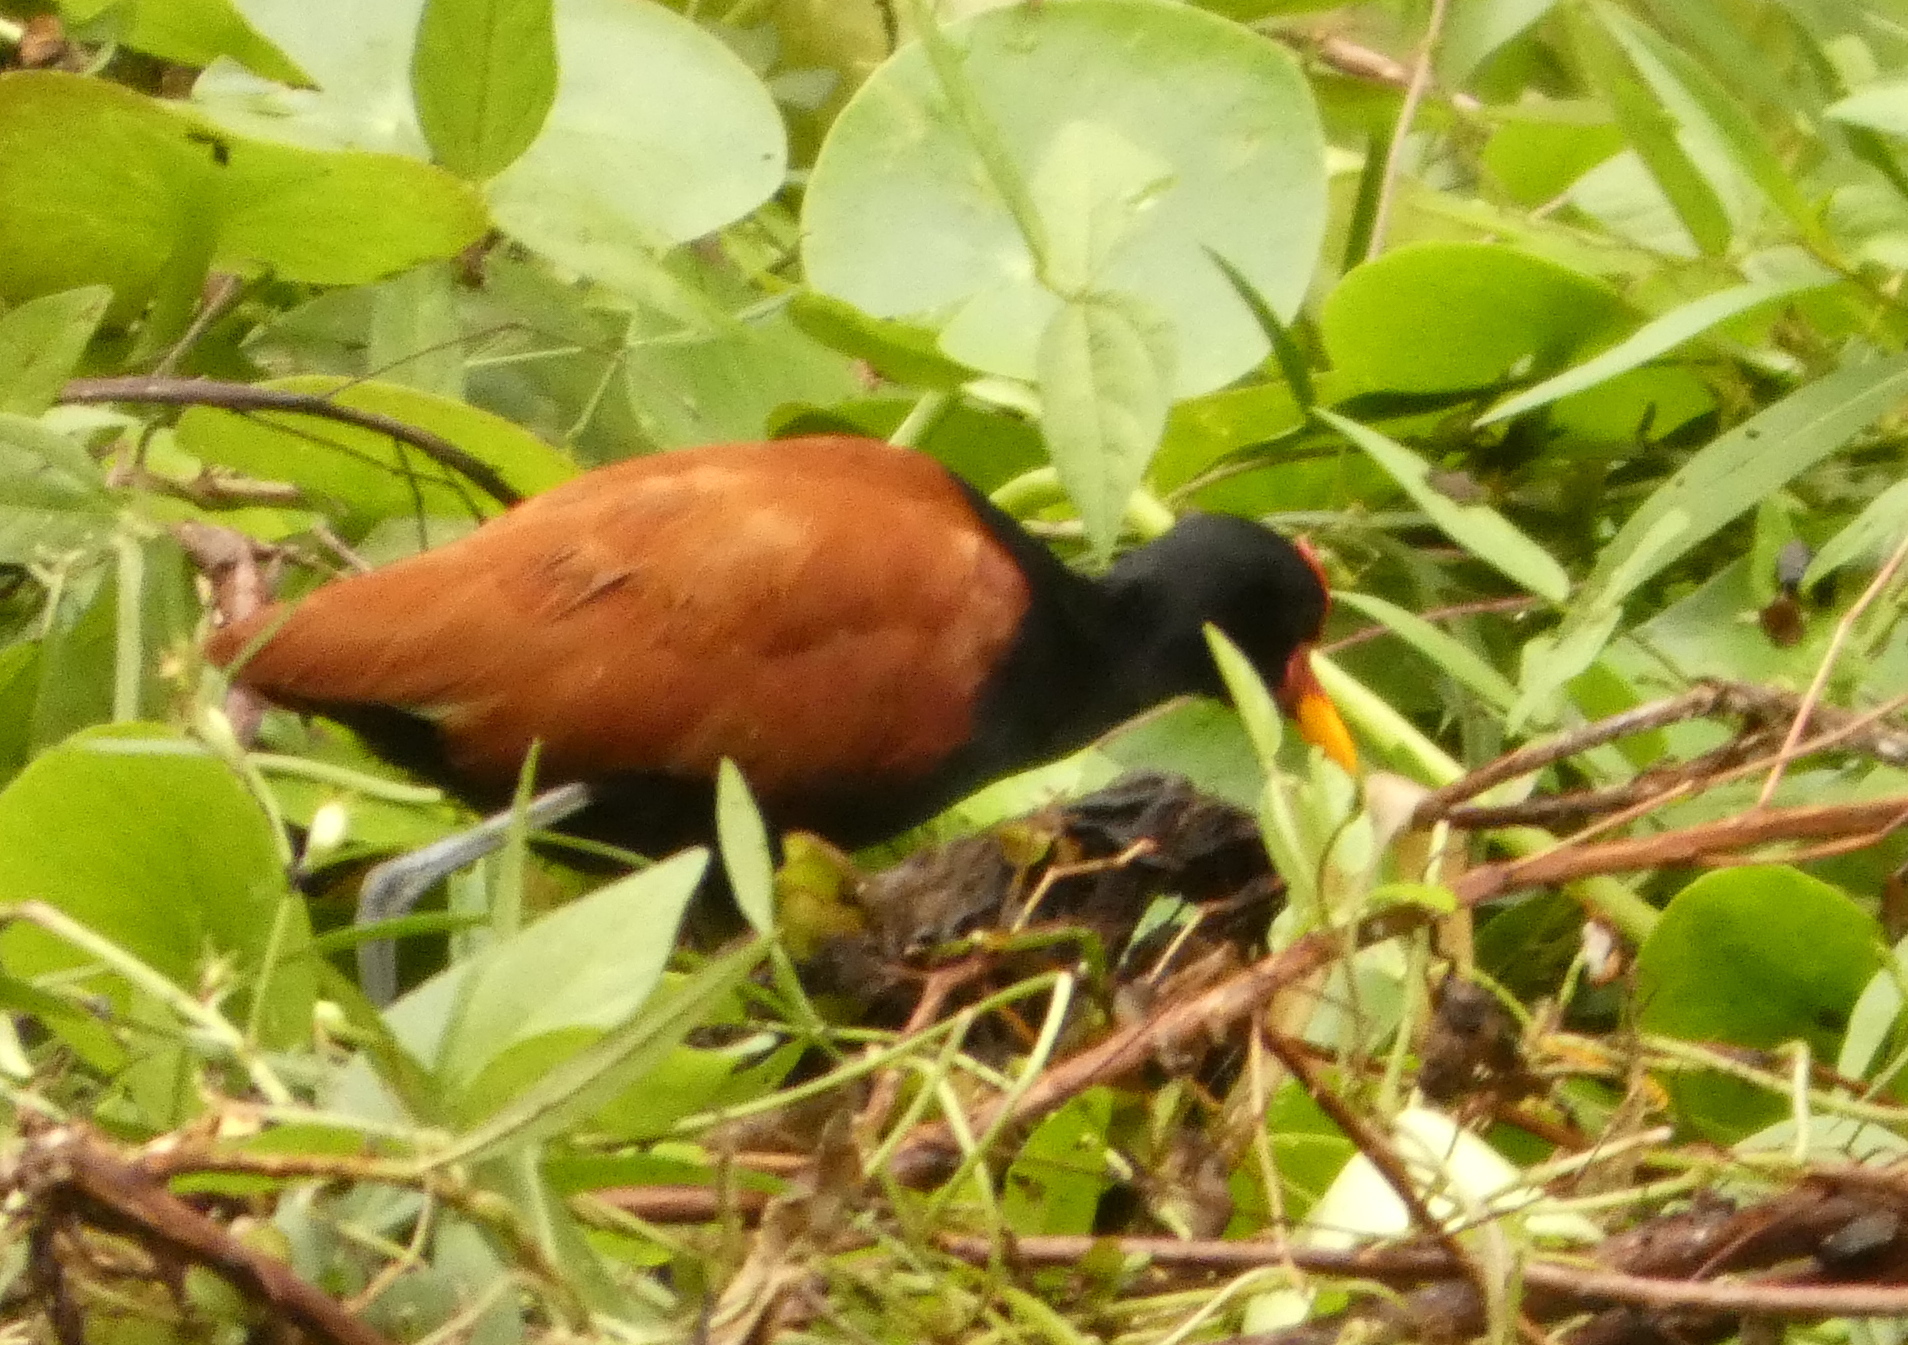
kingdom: Animalia
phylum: Chordata
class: Aves
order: Charadriiformes
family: Jacanidae
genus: Jacana
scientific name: Jacana jacana
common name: Wattled jacana
